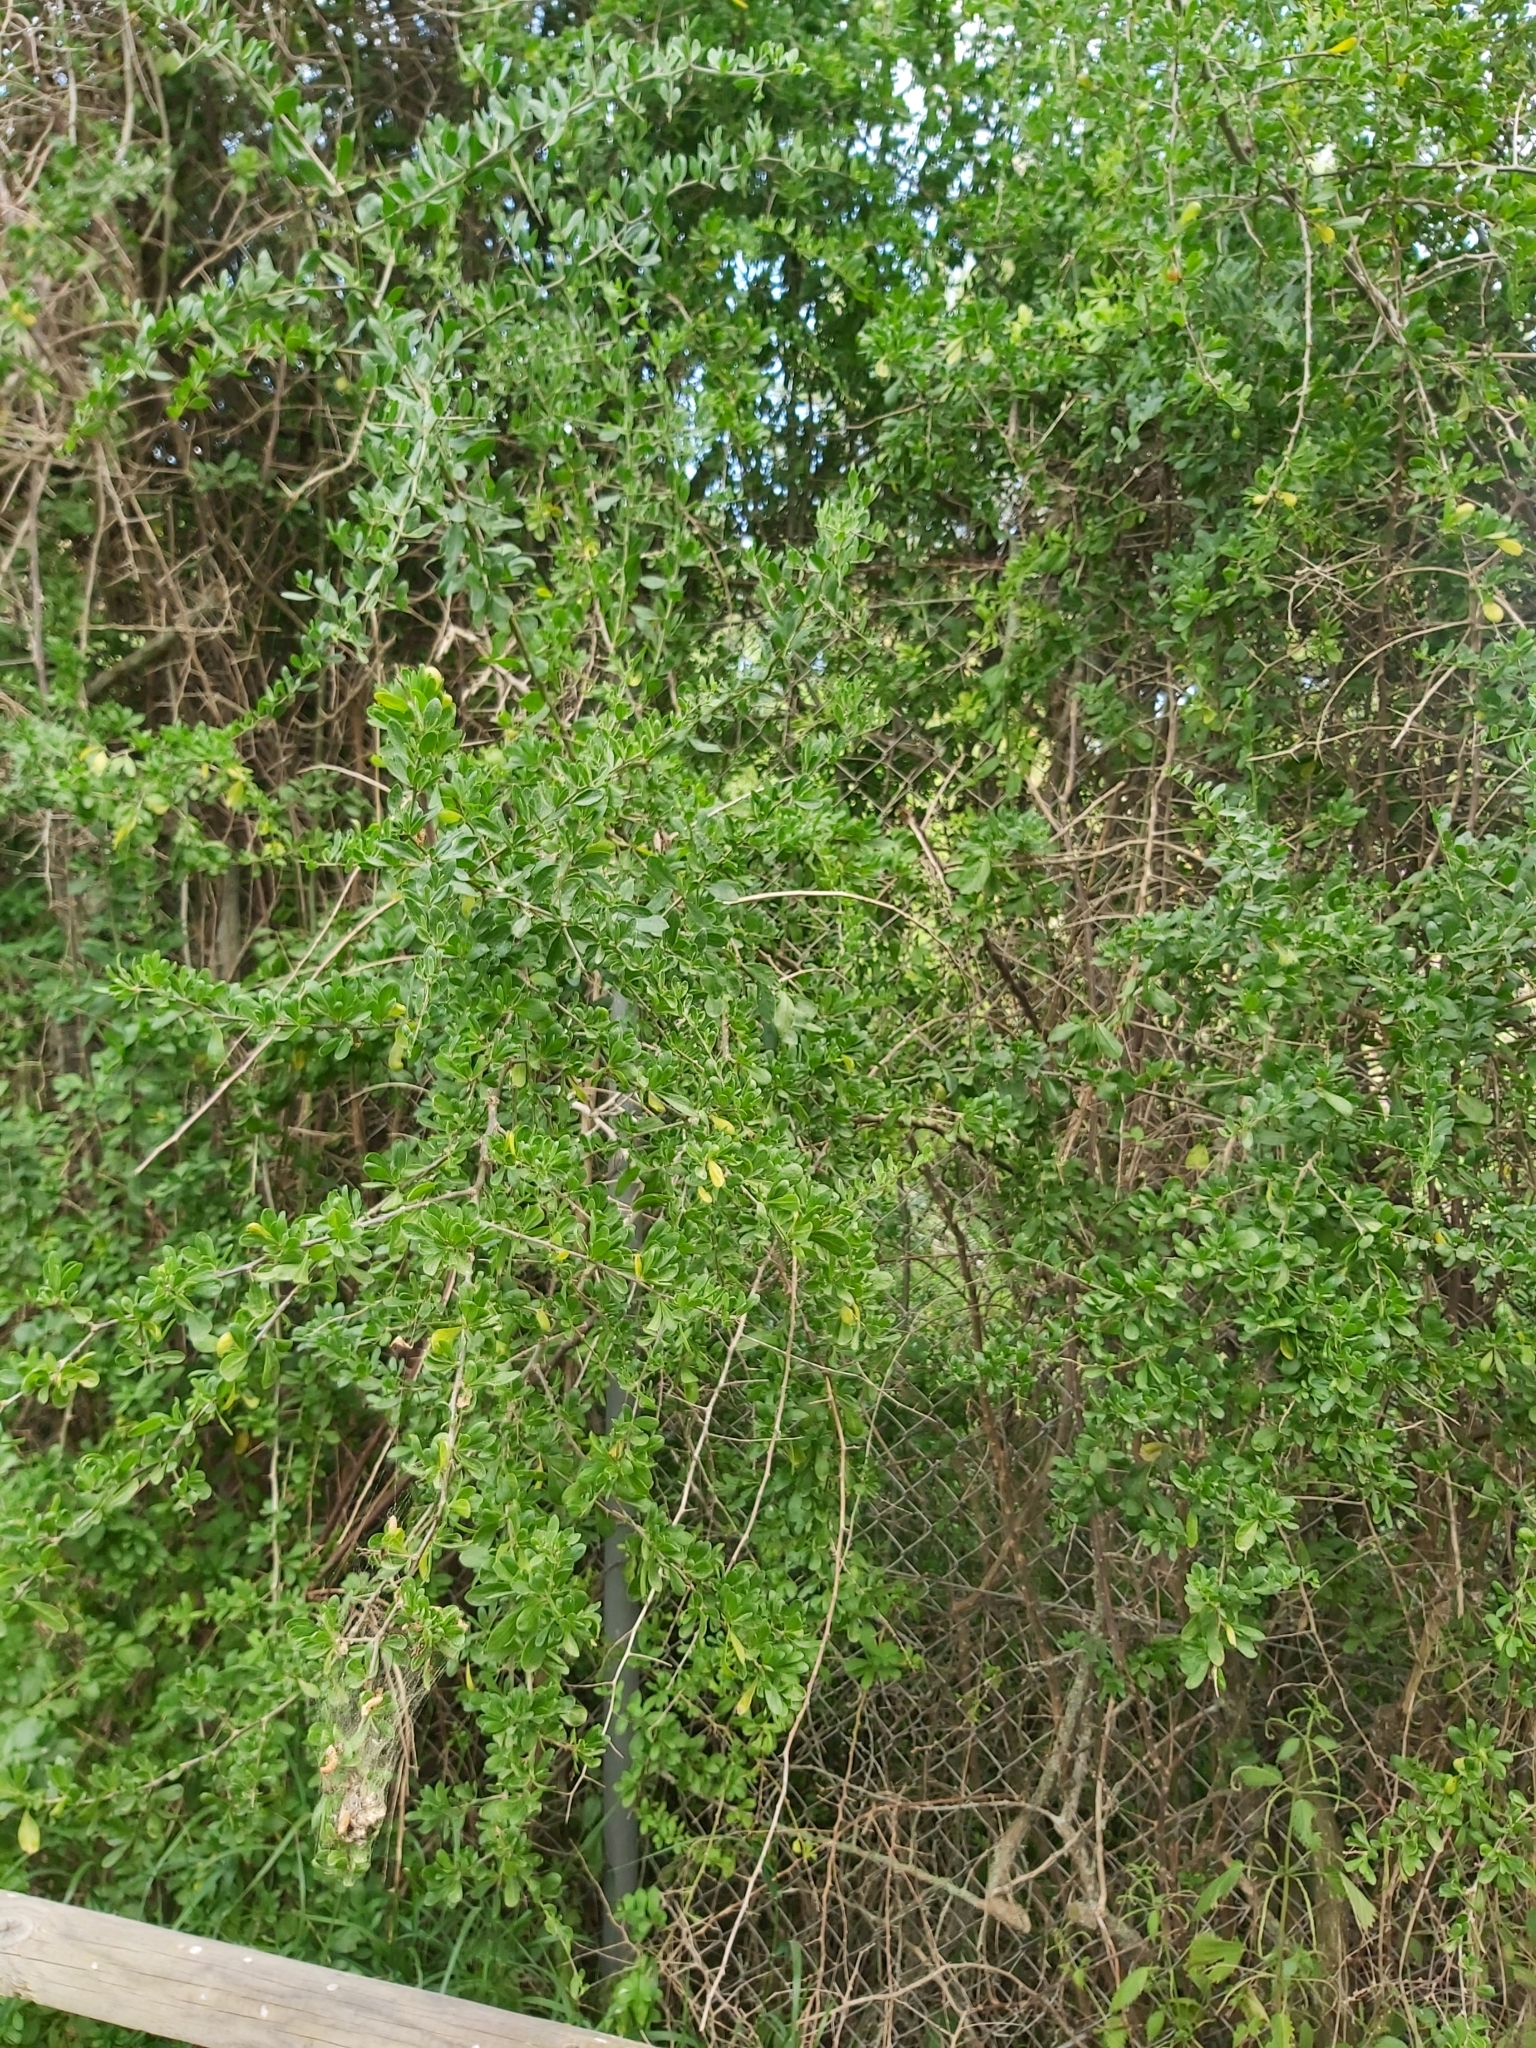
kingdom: Plantae
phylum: Tracheophyta
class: Magnoliopsida
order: Solanales
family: Solanaceae
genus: Lycium
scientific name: Lycium ferocissimum
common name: African boxthorn
